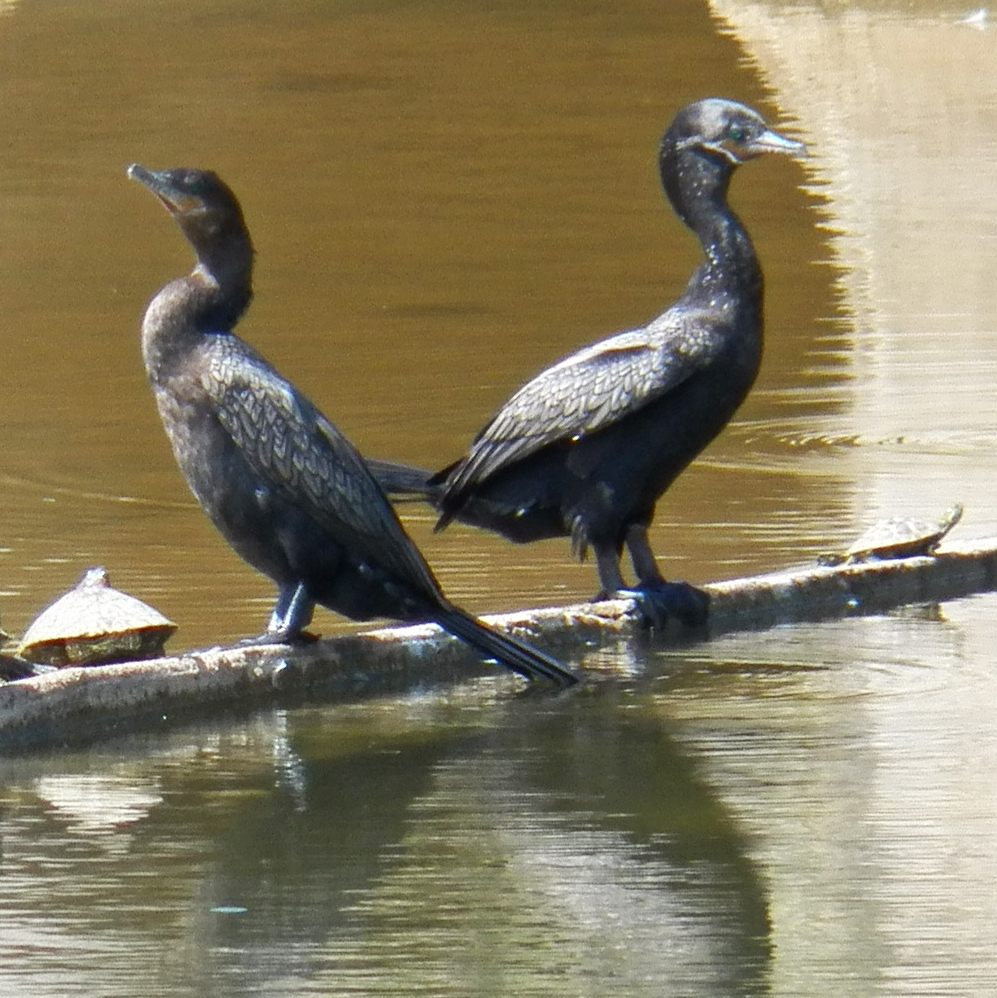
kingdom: Animalia
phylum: Chordata
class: Aves
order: Suliformes
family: Phalacrocoracidae
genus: Phalacrocorax
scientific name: Phalacrocorax brasilianus
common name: Neotropic cormorant
